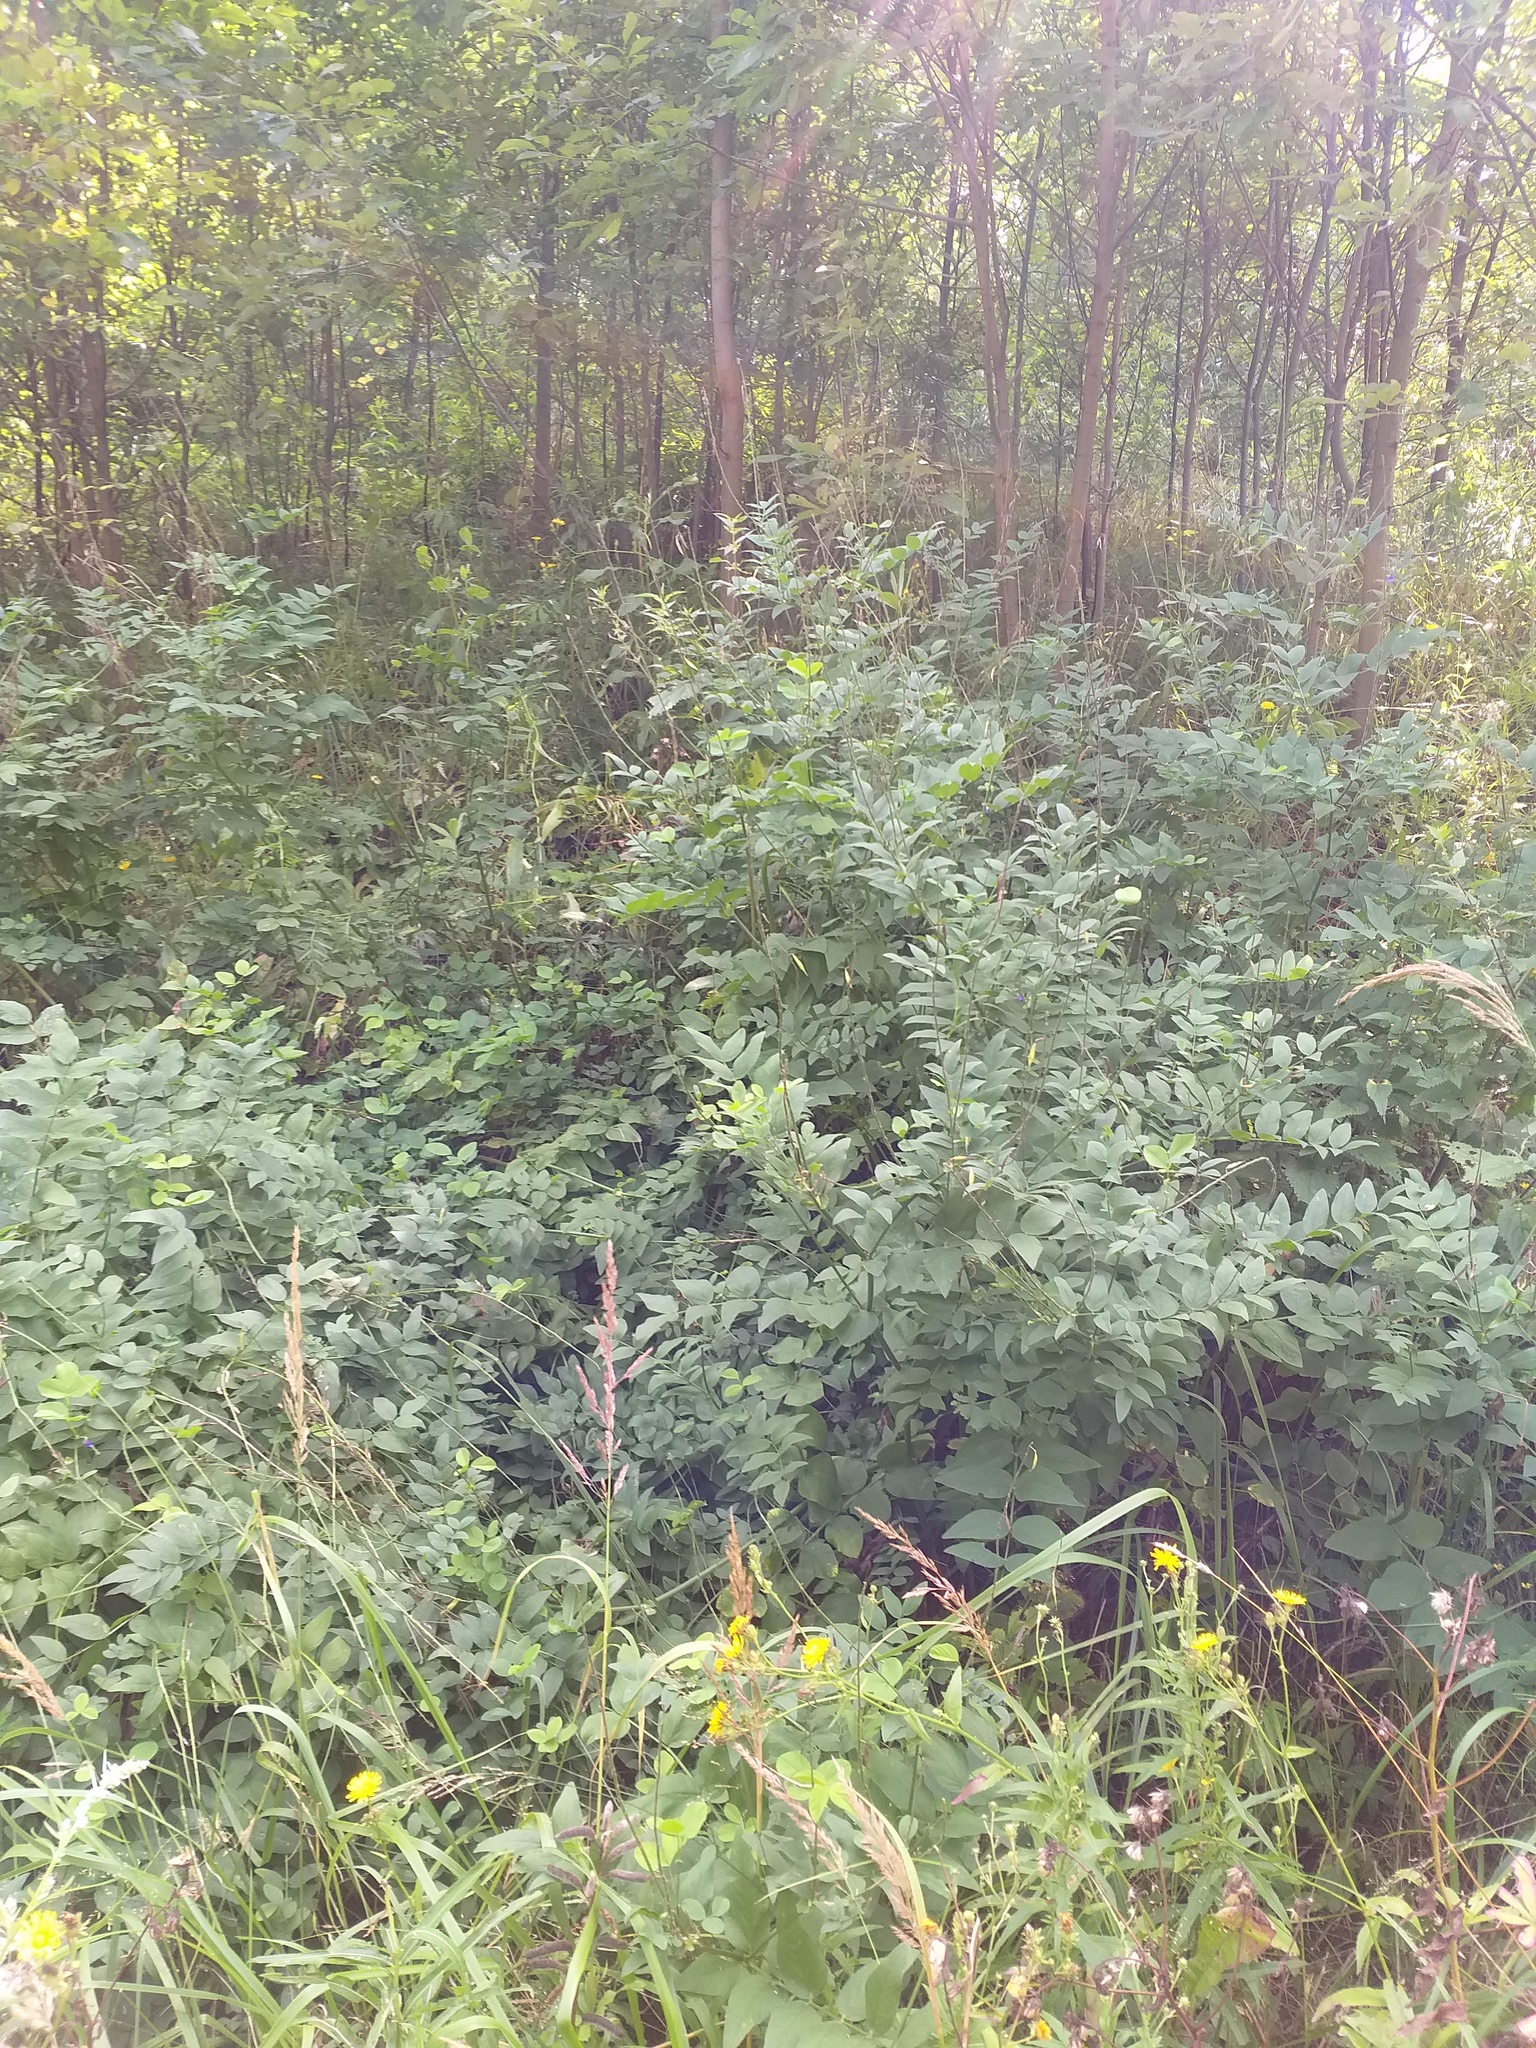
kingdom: Plantae
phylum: Tracheophyta
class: Magnoliopsida
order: Fabales
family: Fabaceae
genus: Galega
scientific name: Galega orientalis
